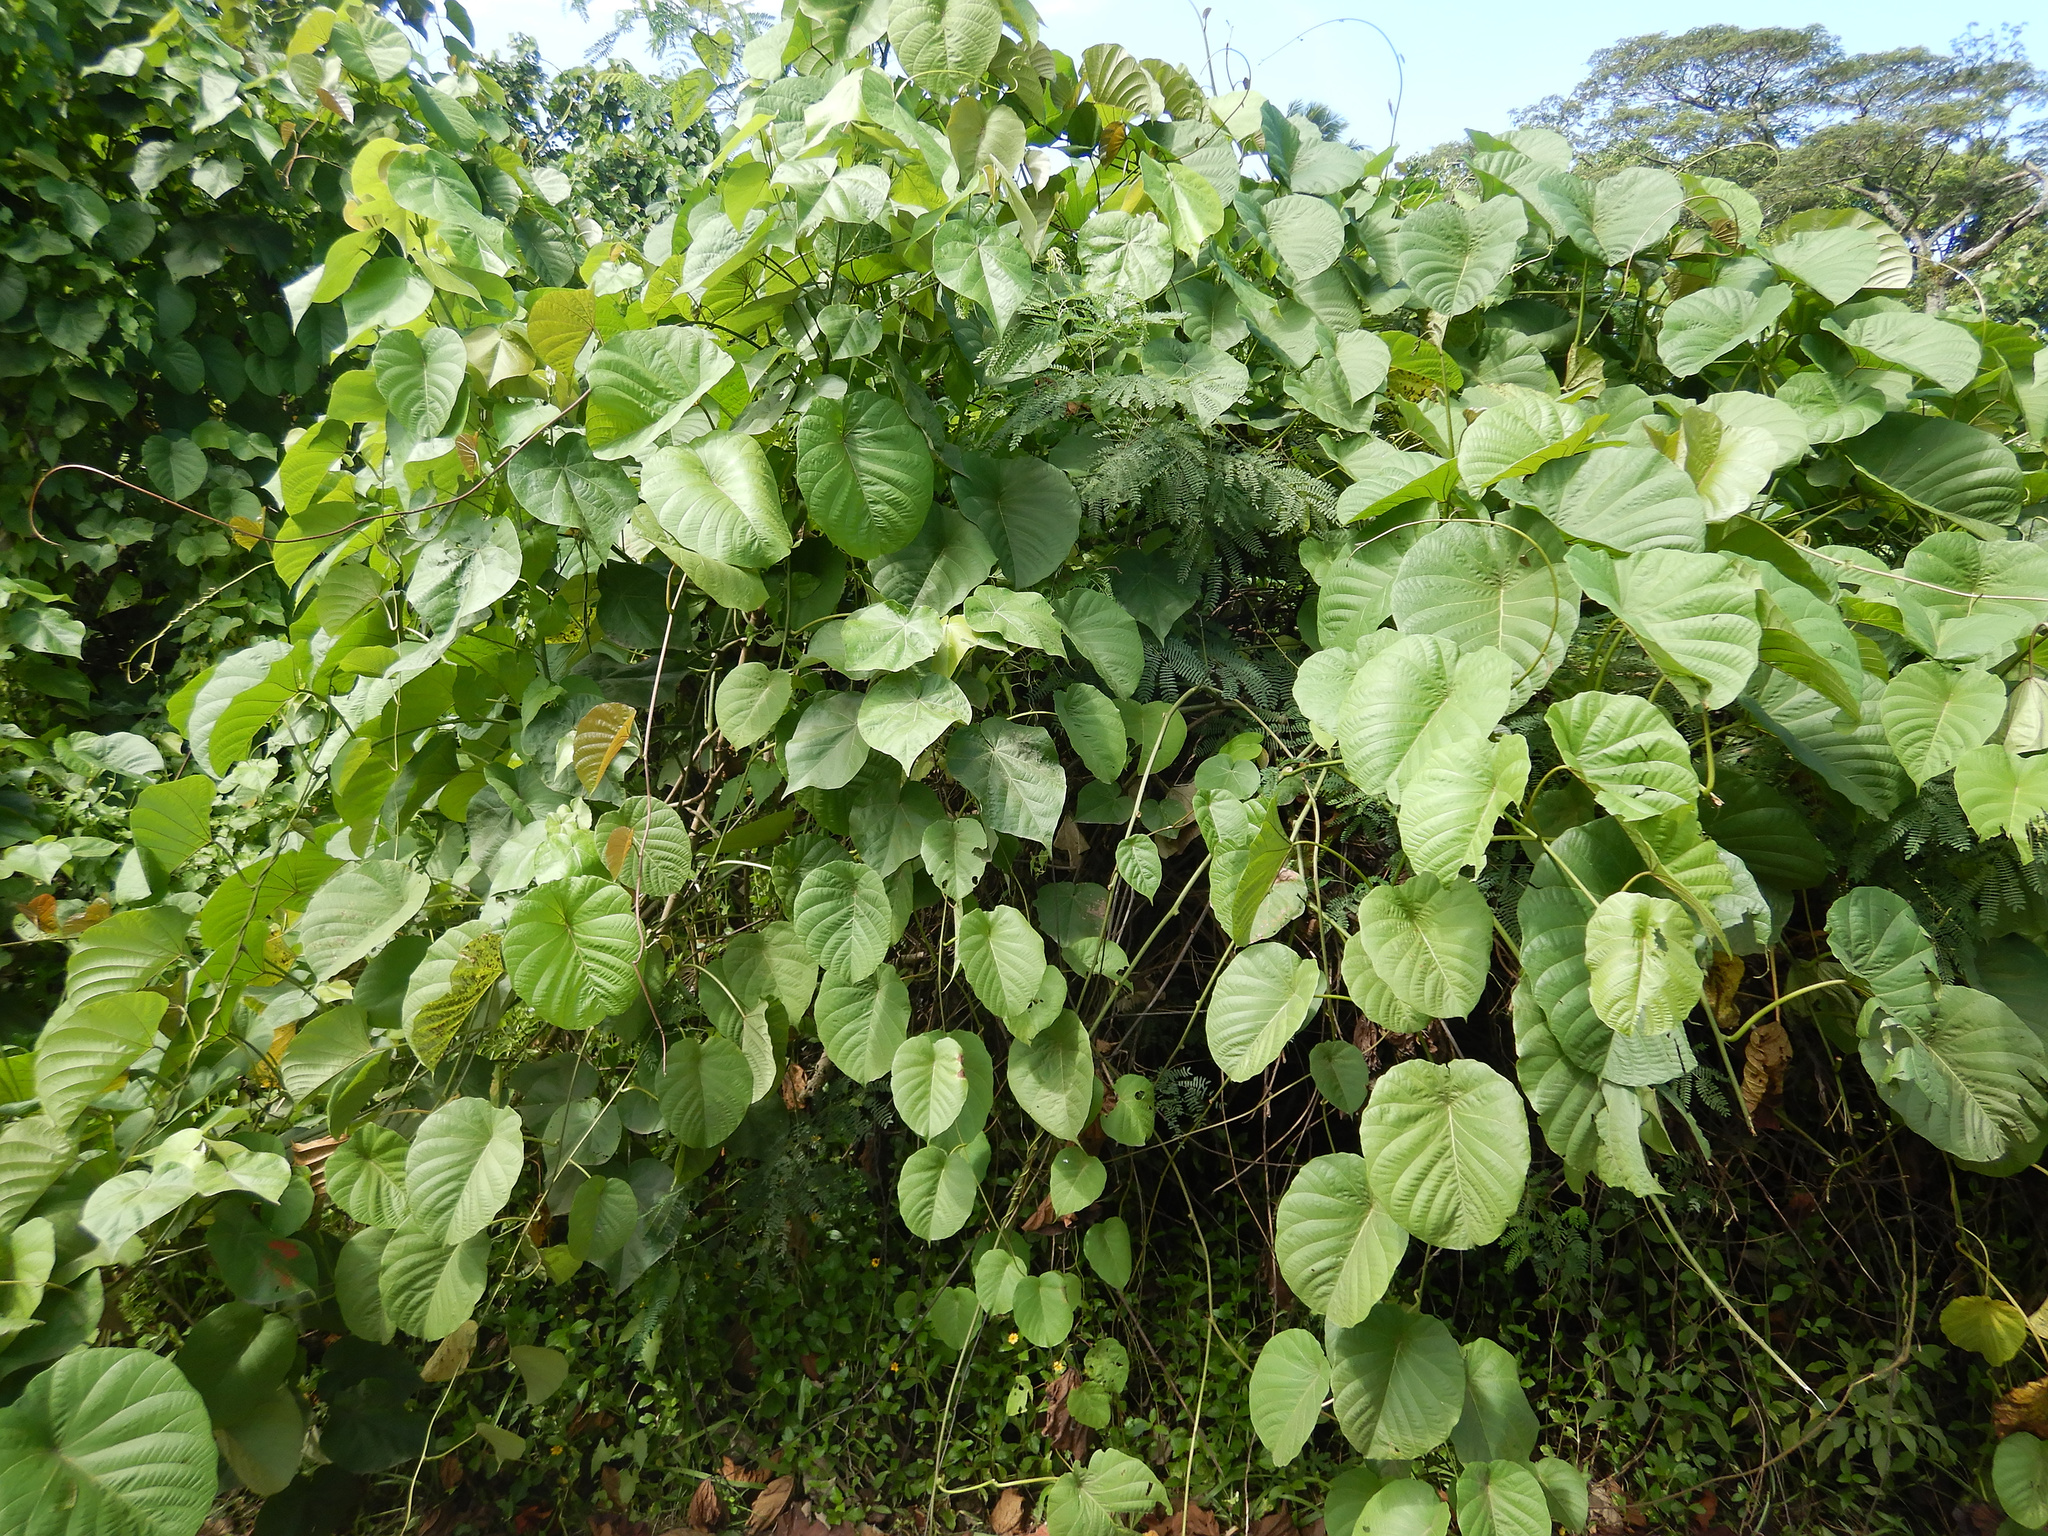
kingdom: Plantae
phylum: Tracheophyta
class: Magnoliopsida
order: Solanales
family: Convolvulaceae
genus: Decalobanthus
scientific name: Decalobanthus peltatus
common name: Merremia
